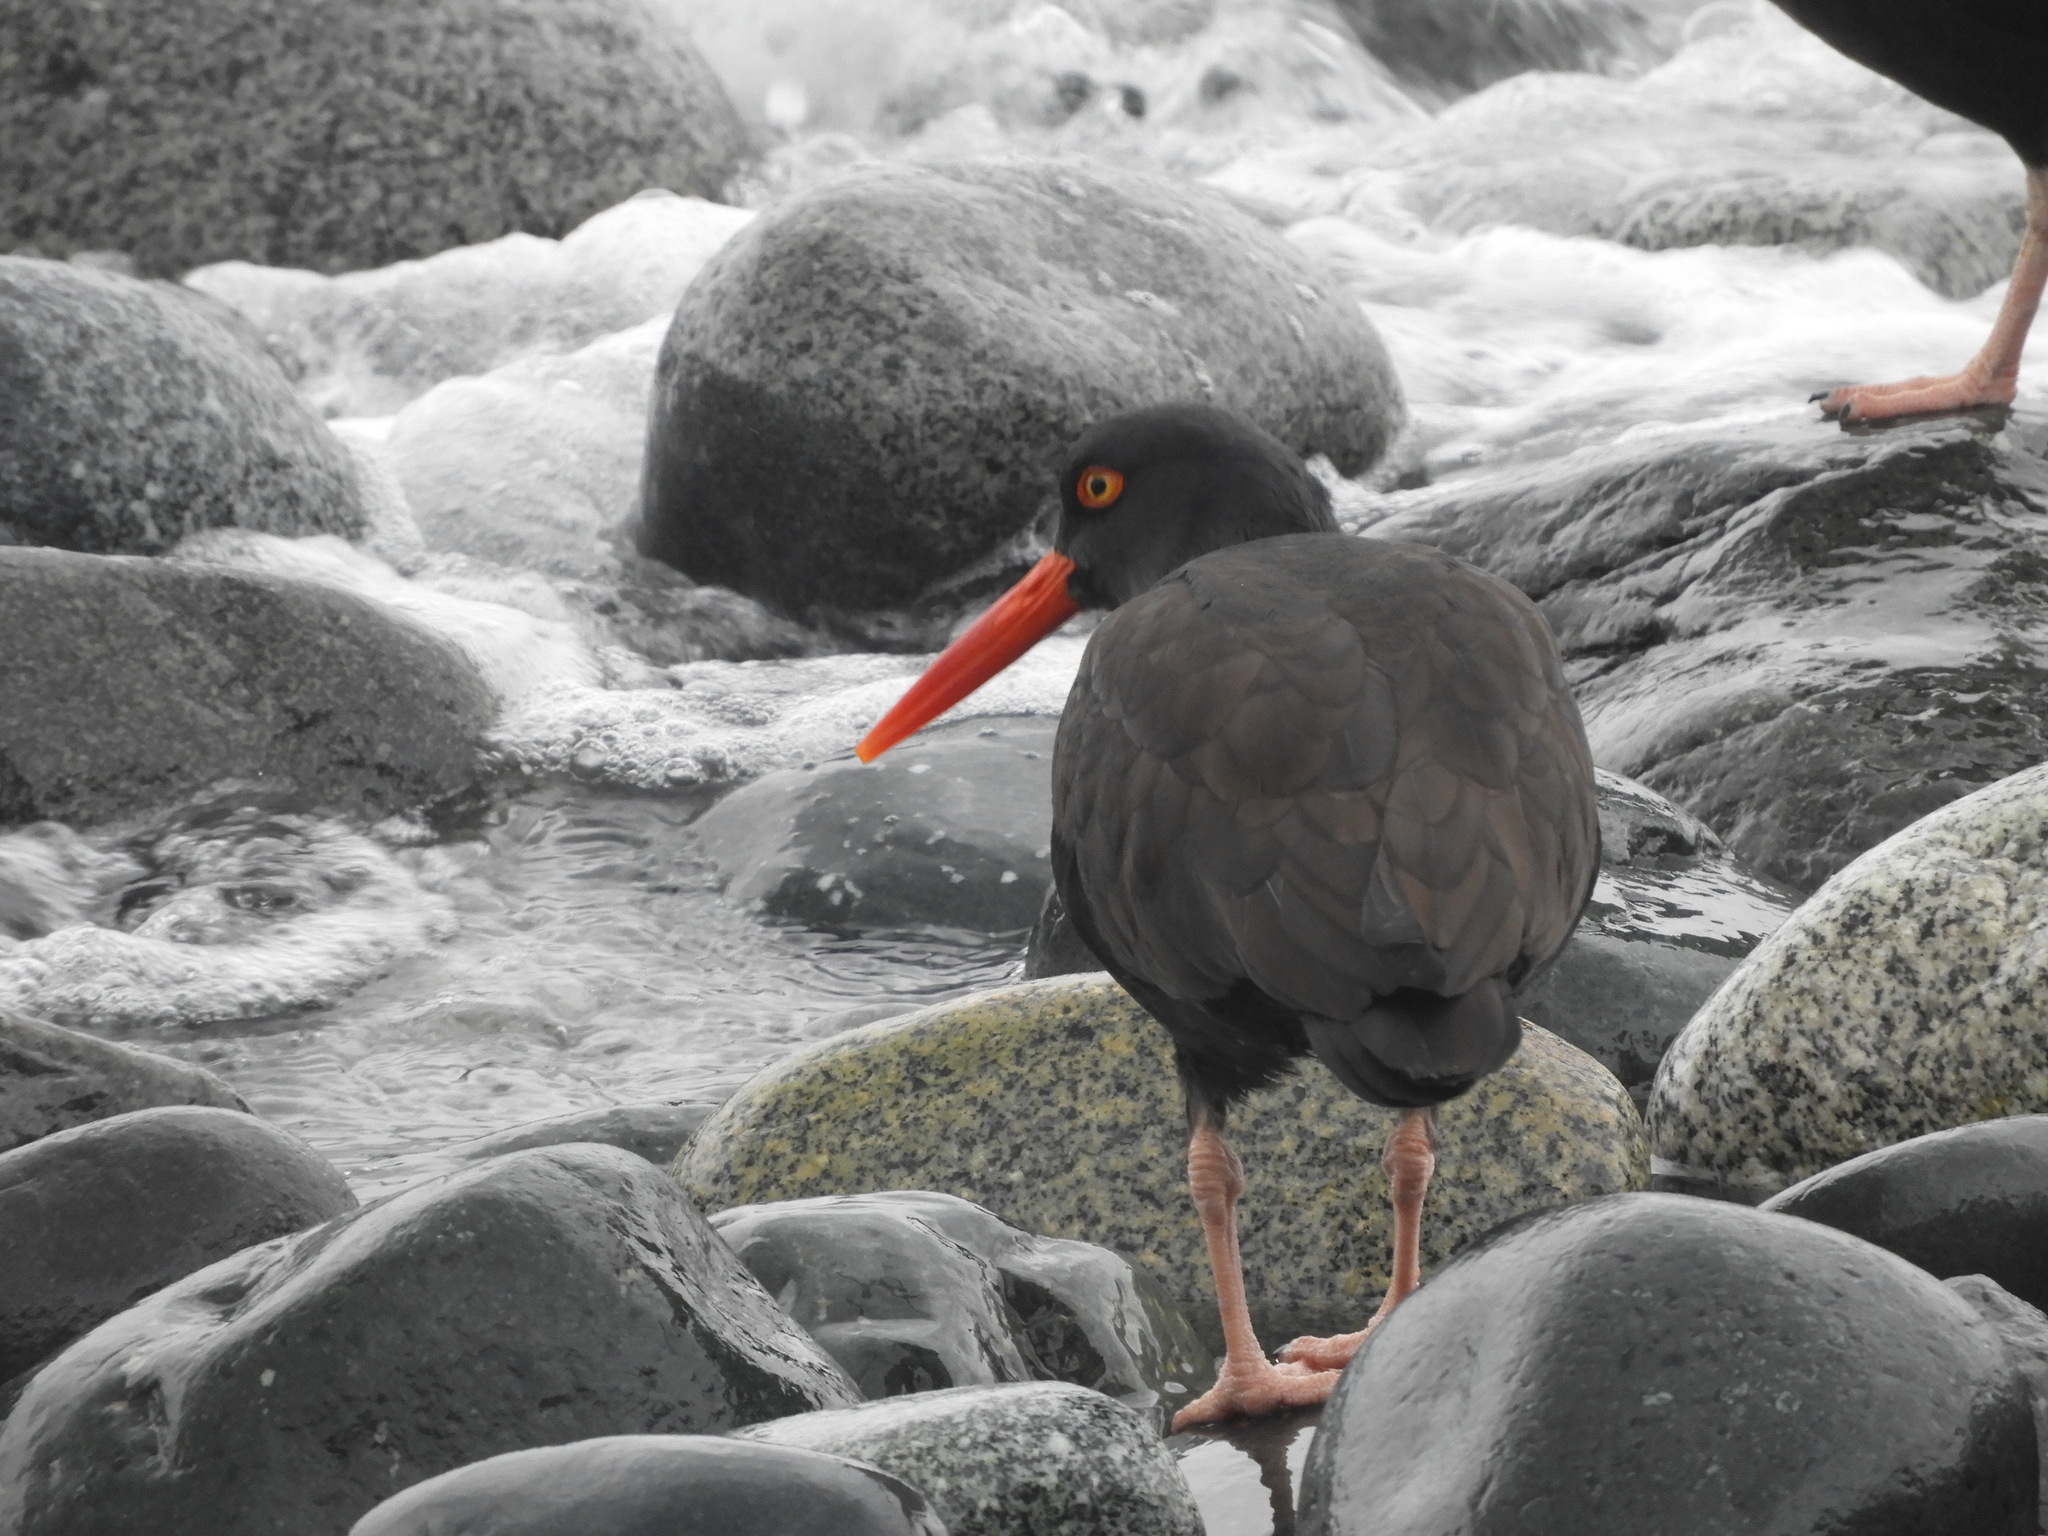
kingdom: Animalia
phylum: Chordata
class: Aves
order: Charadriiformes
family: Haematopodidae
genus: Haematopus
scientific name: Haematopus bachmani
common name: Black oystercatcher
